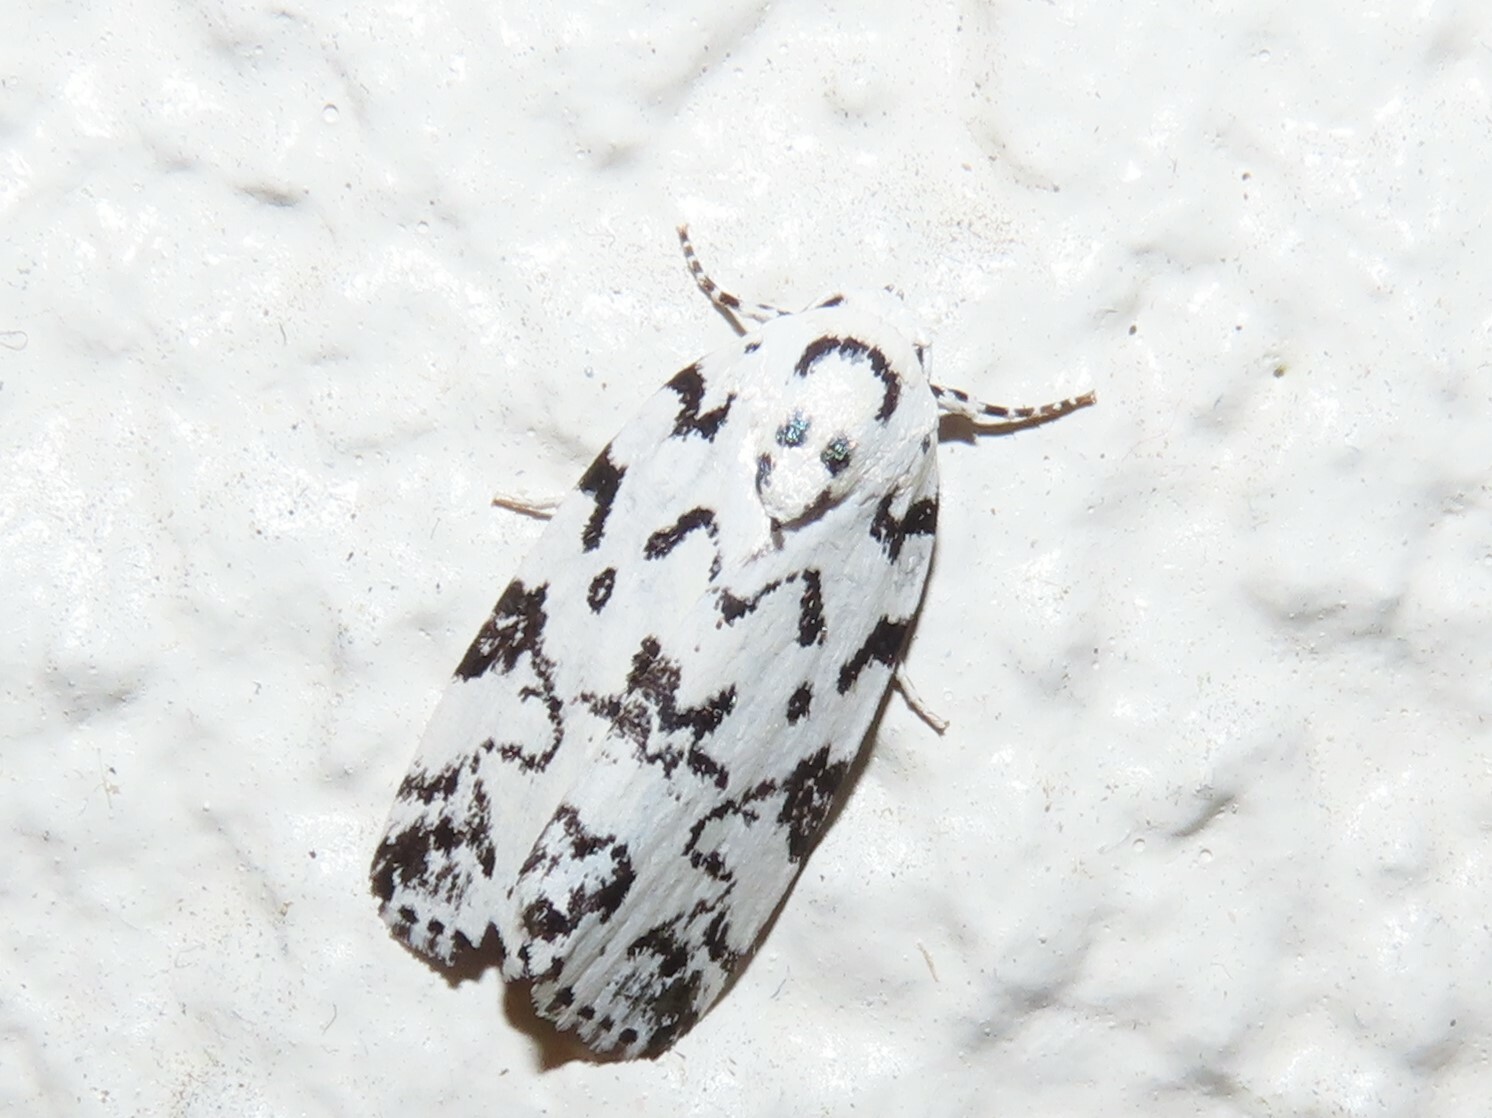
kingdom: Animalia
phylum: Arthropoda
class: Insecta
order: Lepidoptera
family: Noctuidae
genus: Polygrammate
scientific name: Polygrammate hebraeicum
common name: Hebrew moth
